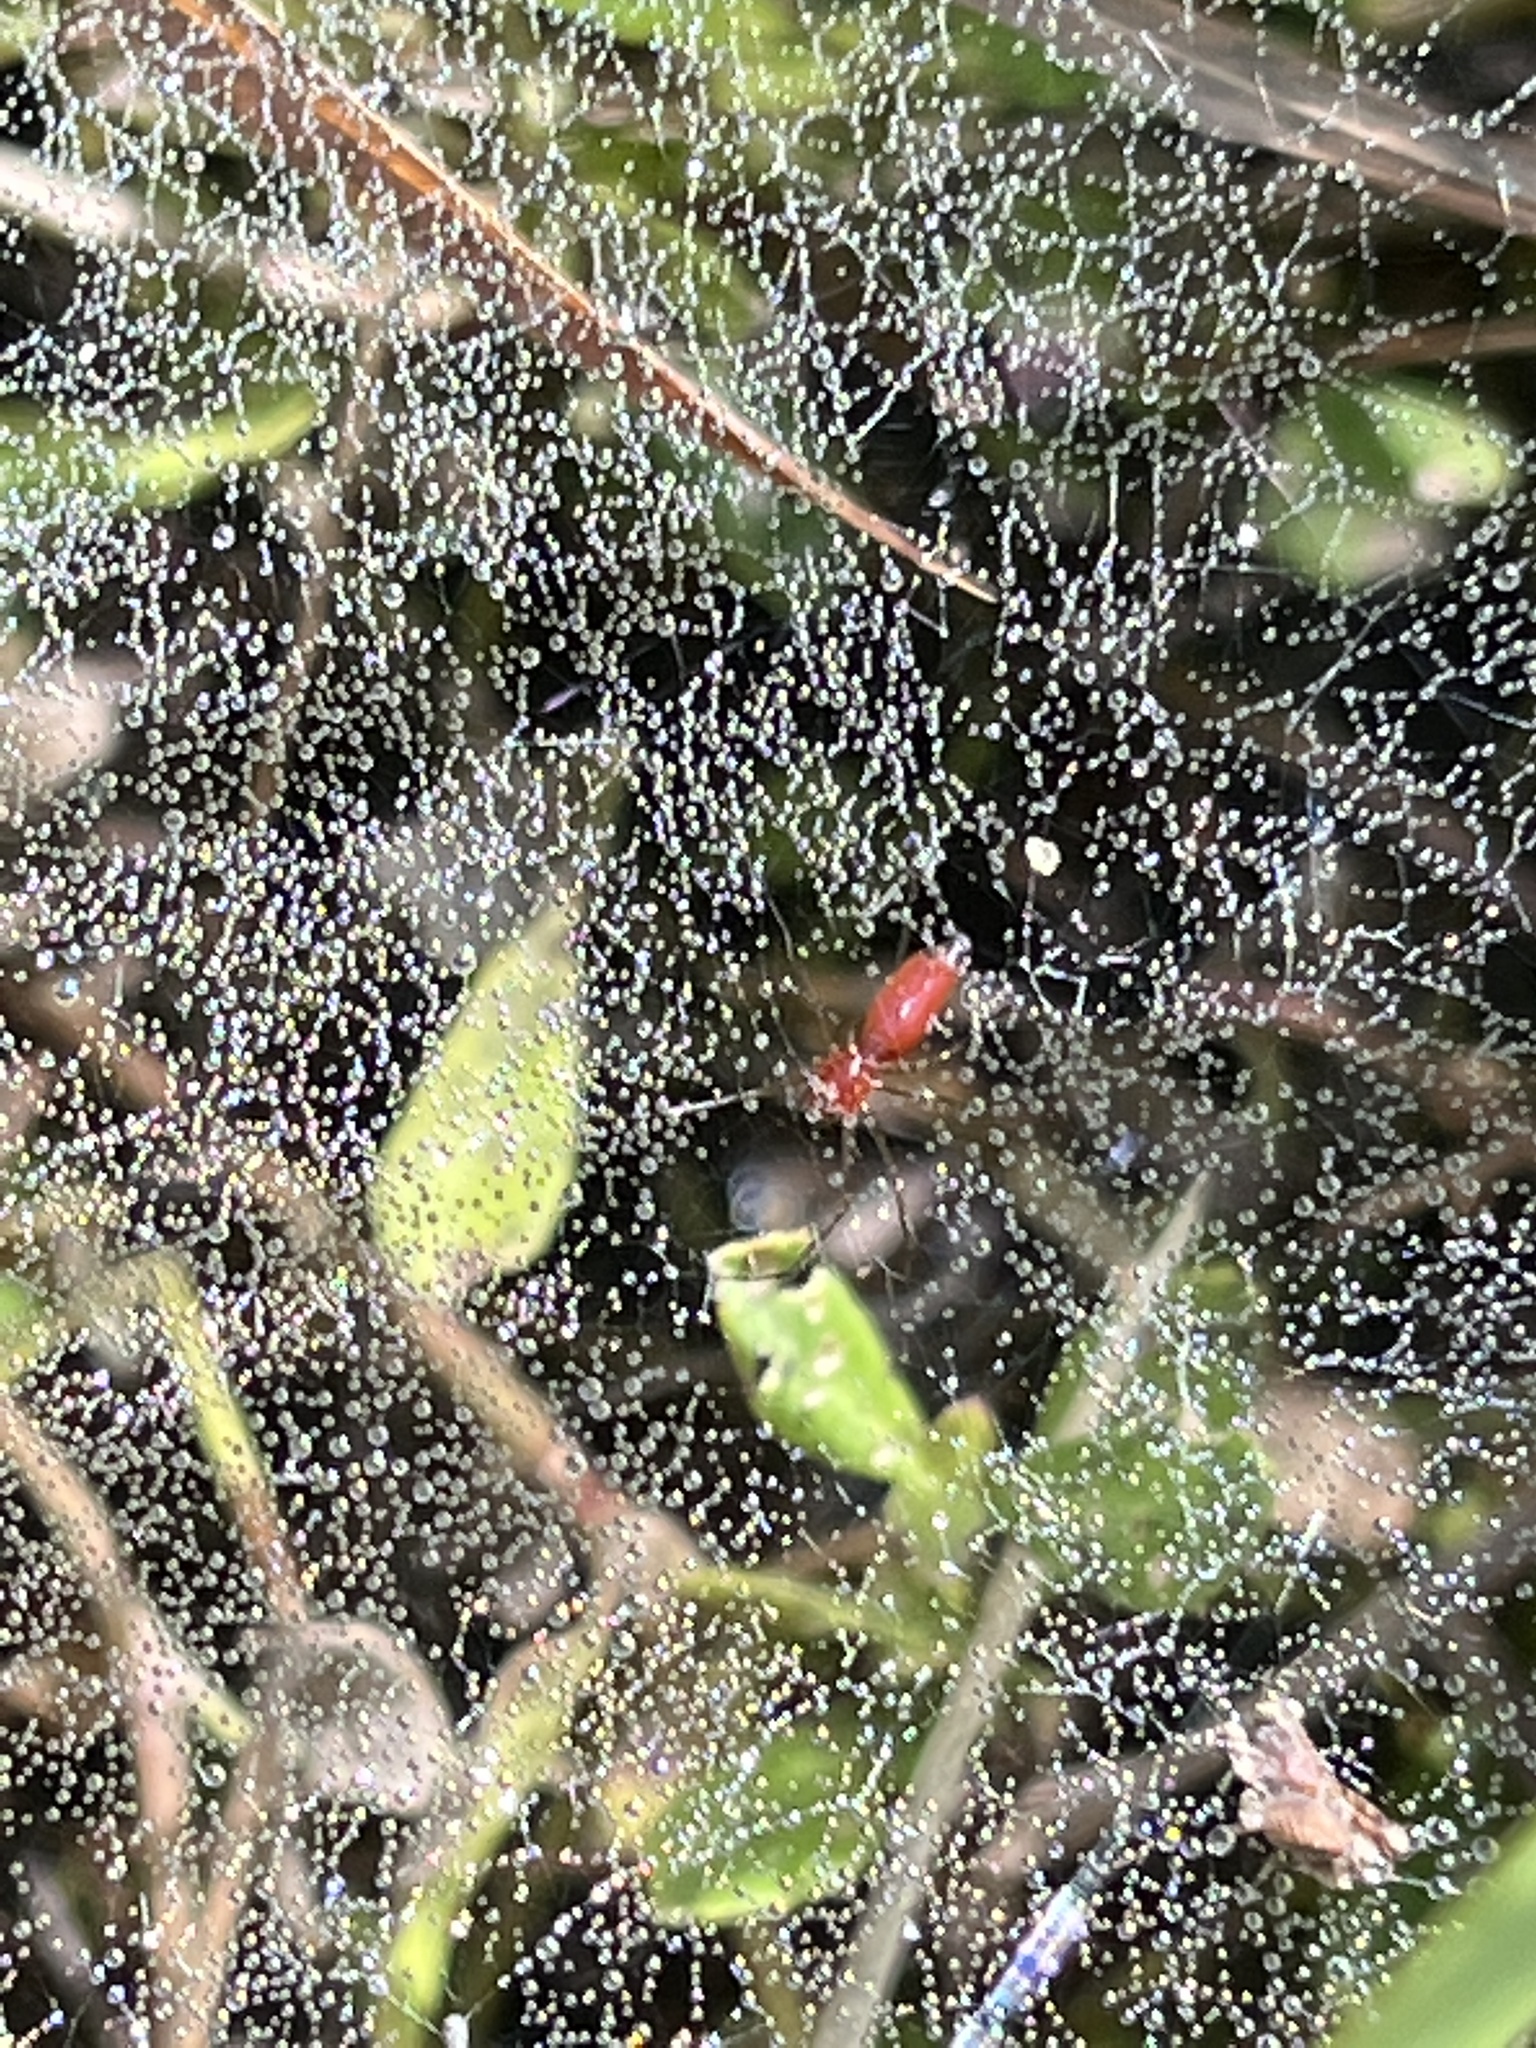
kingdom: Animalia
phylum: Arthropoda
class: Arachnida
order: Araneae
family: Linyphiidae
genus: Florinda
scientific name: Florinda coccinea
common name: Black-tailed red sheetweaver
